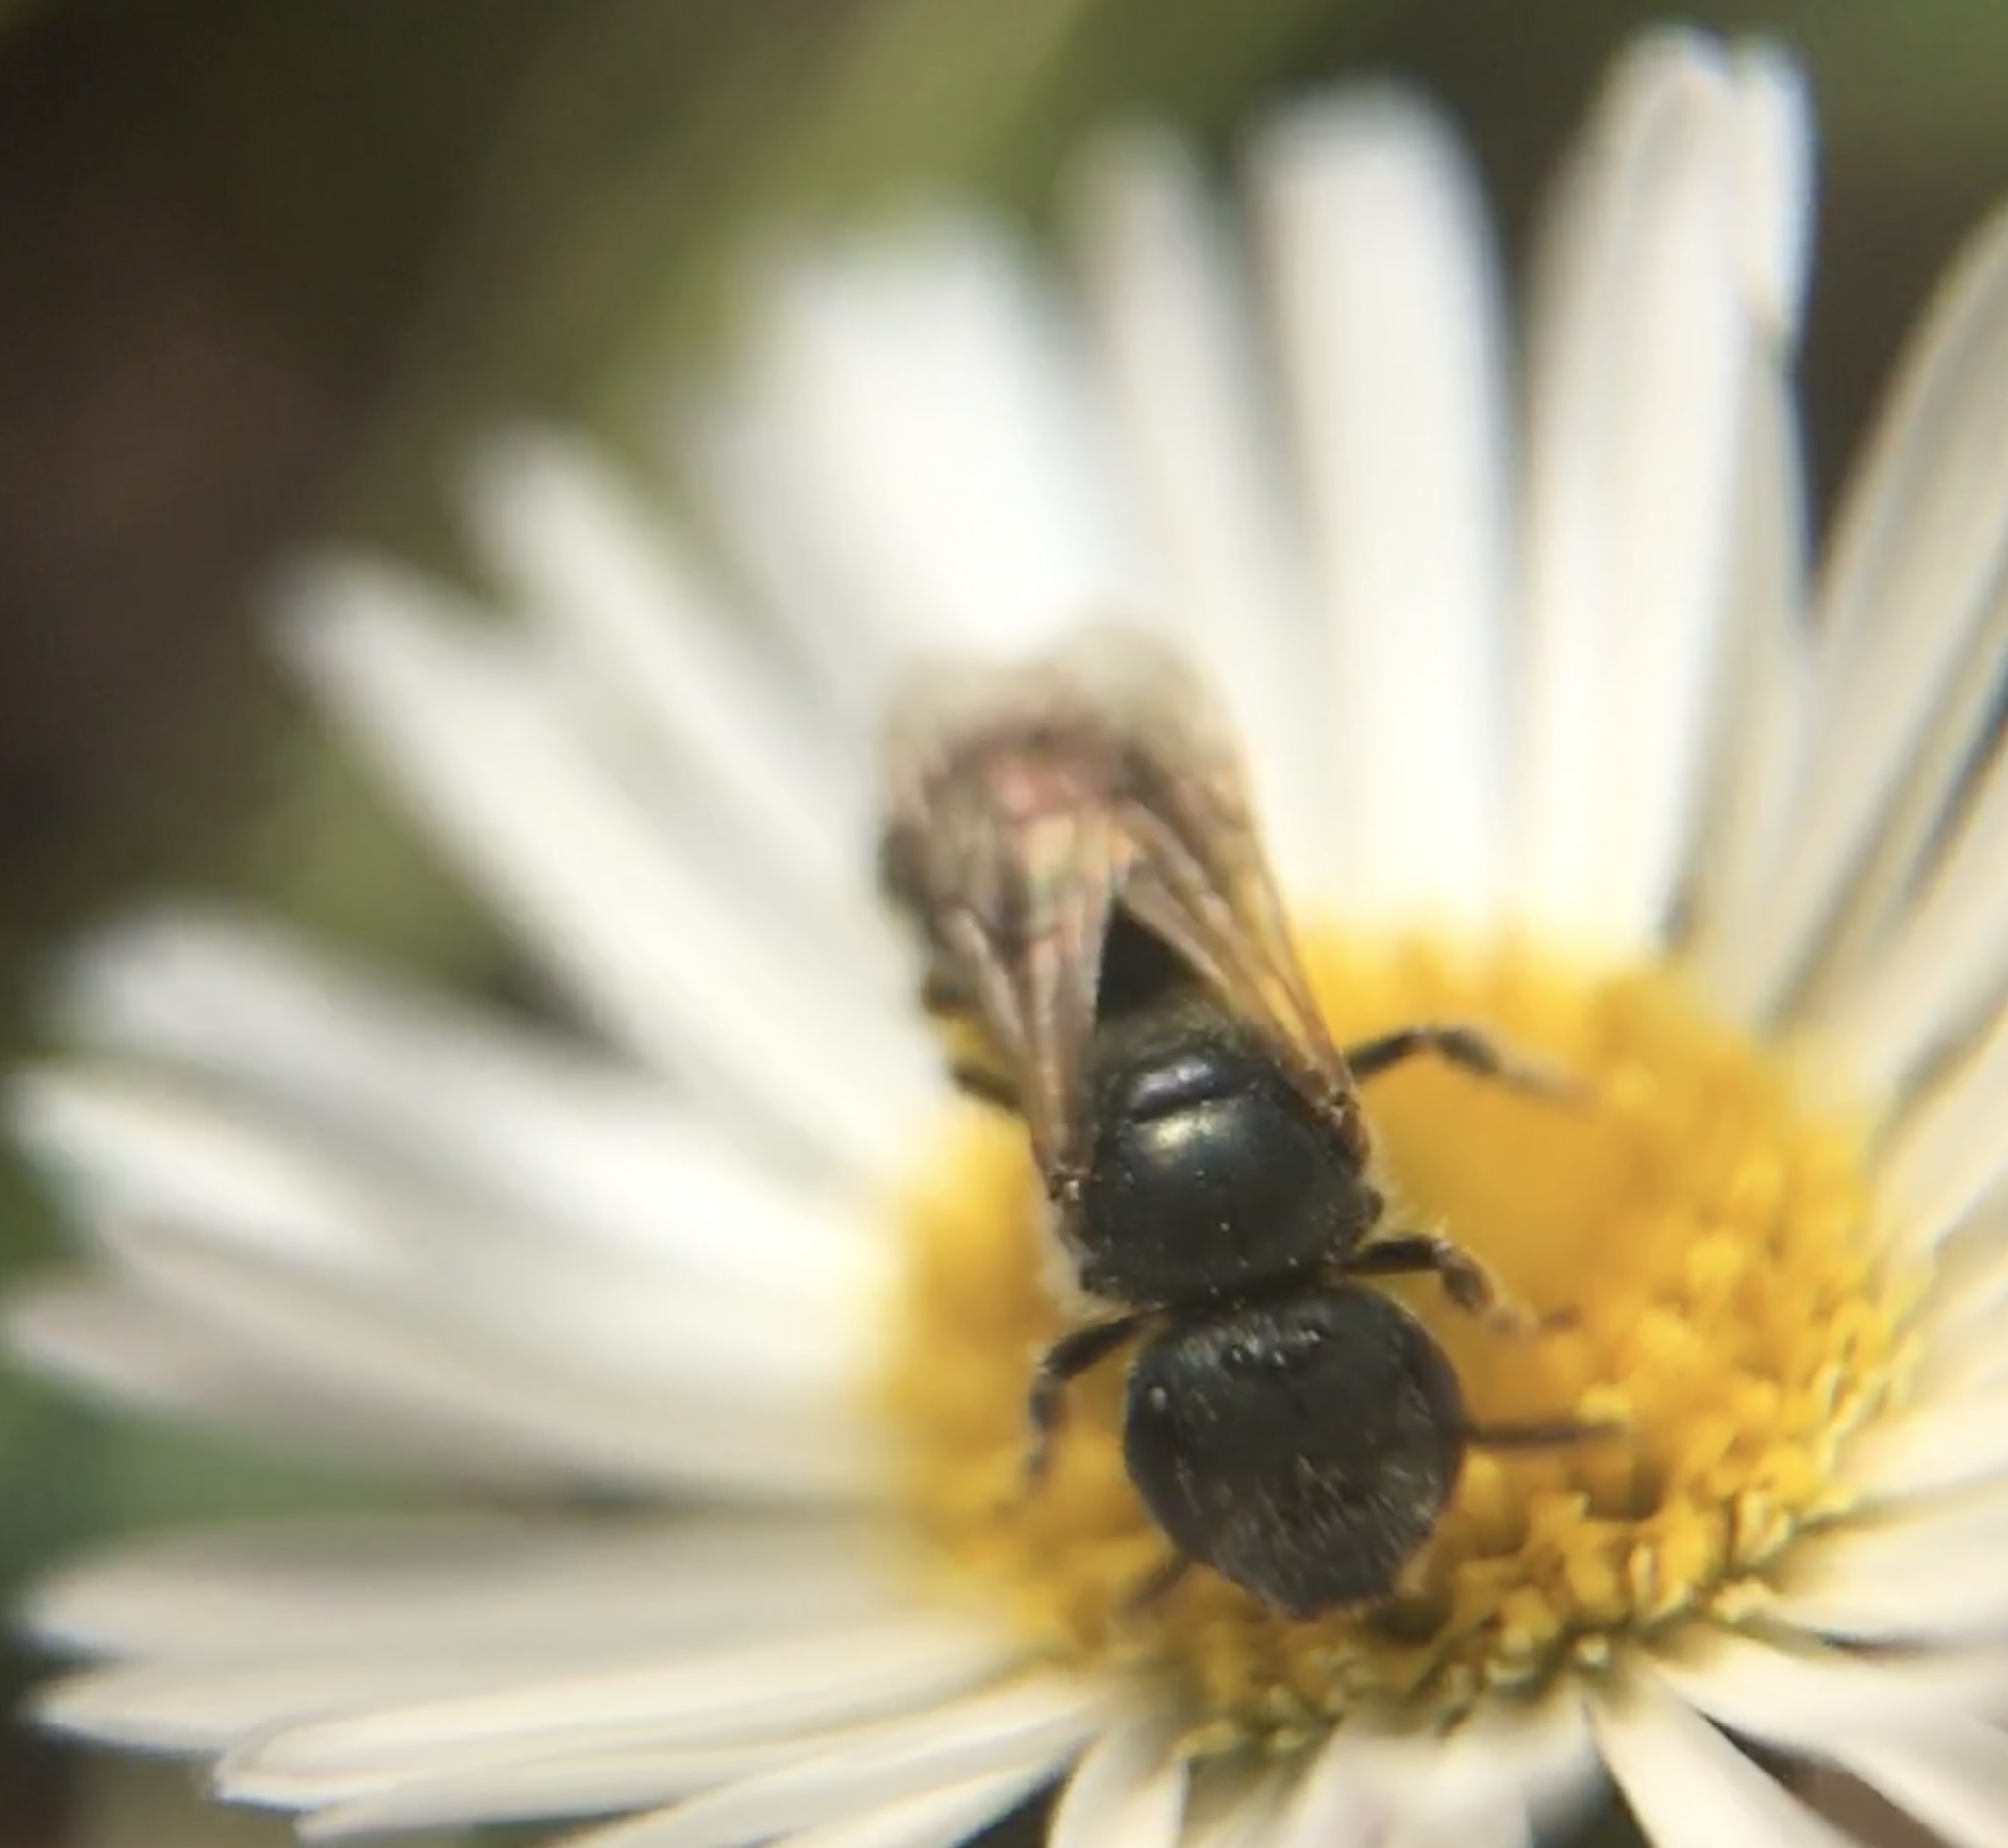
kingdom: Animalia
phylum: Arthropoda
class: Insecta
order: Hymenoptera
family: Halictidae
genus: Halictus
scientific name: Halictus tripartitus
